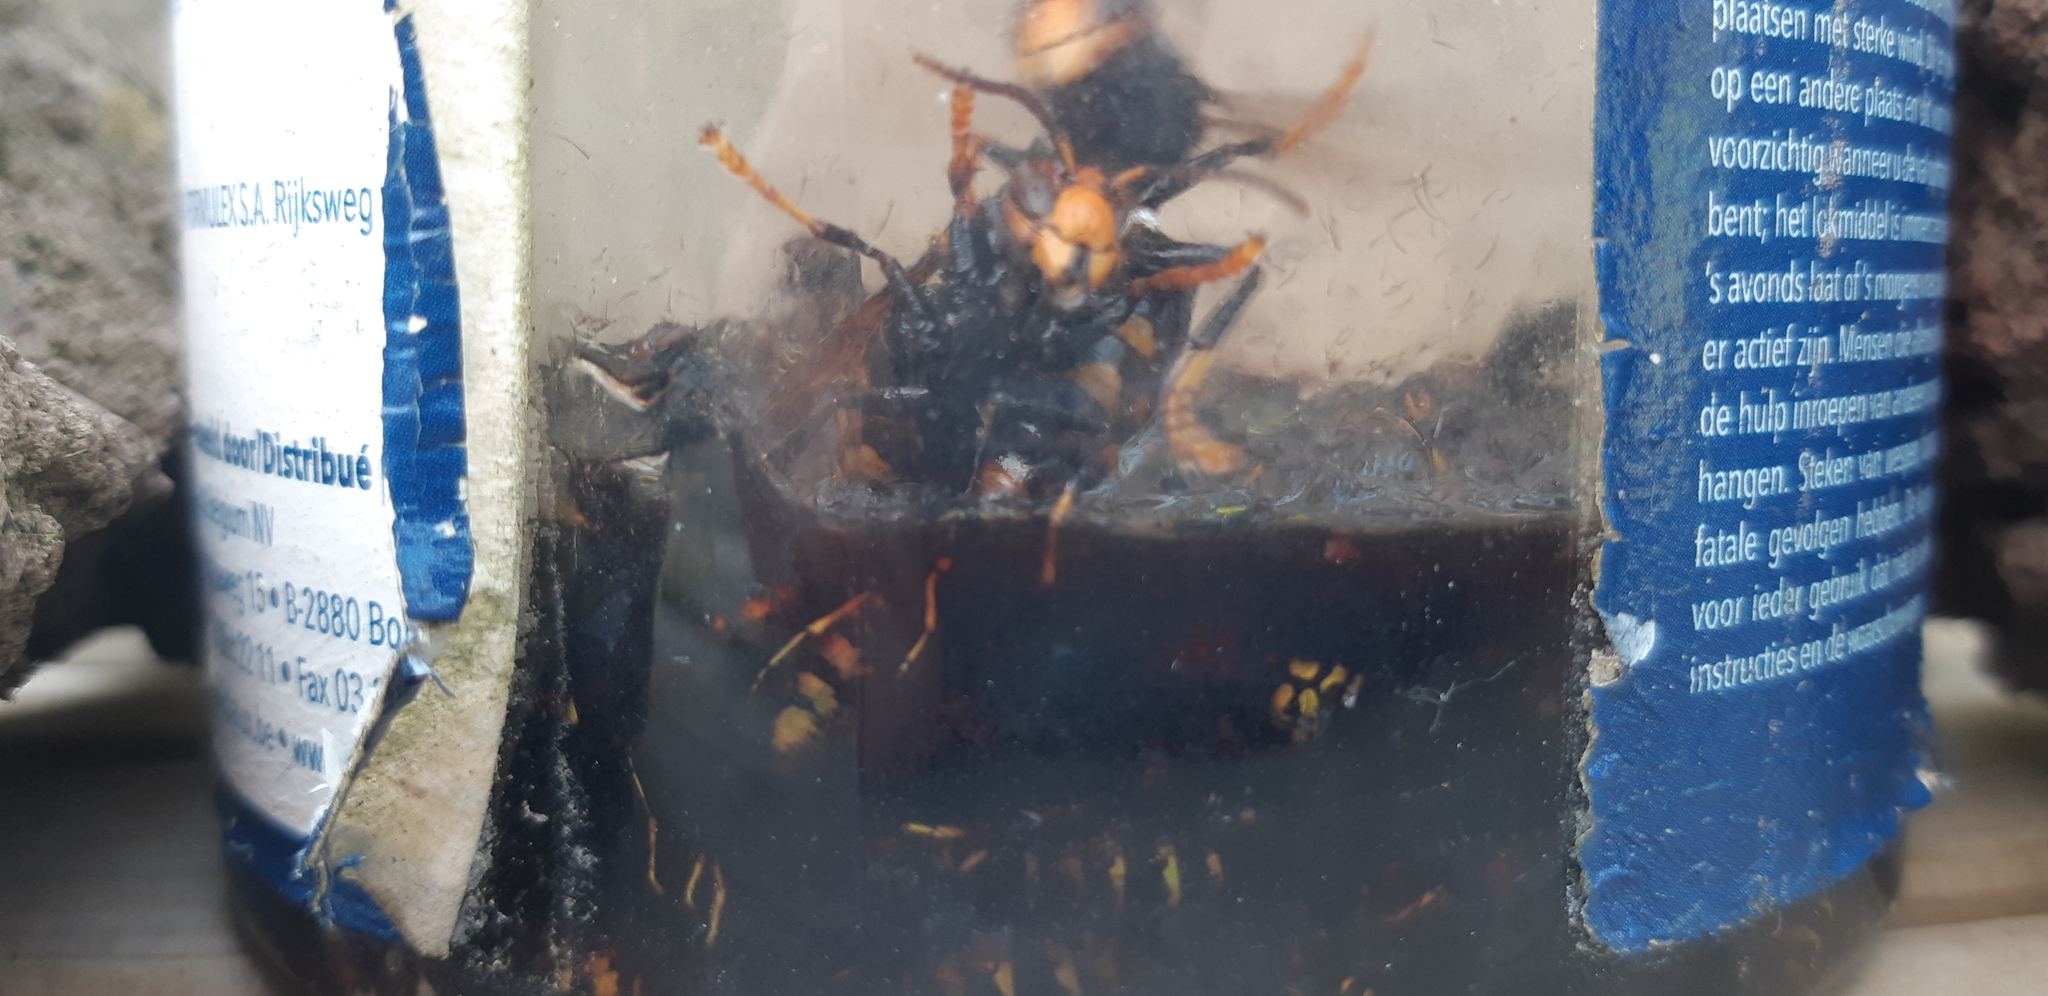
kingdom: Animalia
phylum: Arthropoda
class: Insecta
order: Hymenoptera
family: Vespidae
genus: Vespa
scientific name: Vespa velutina
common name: Asian hornet
